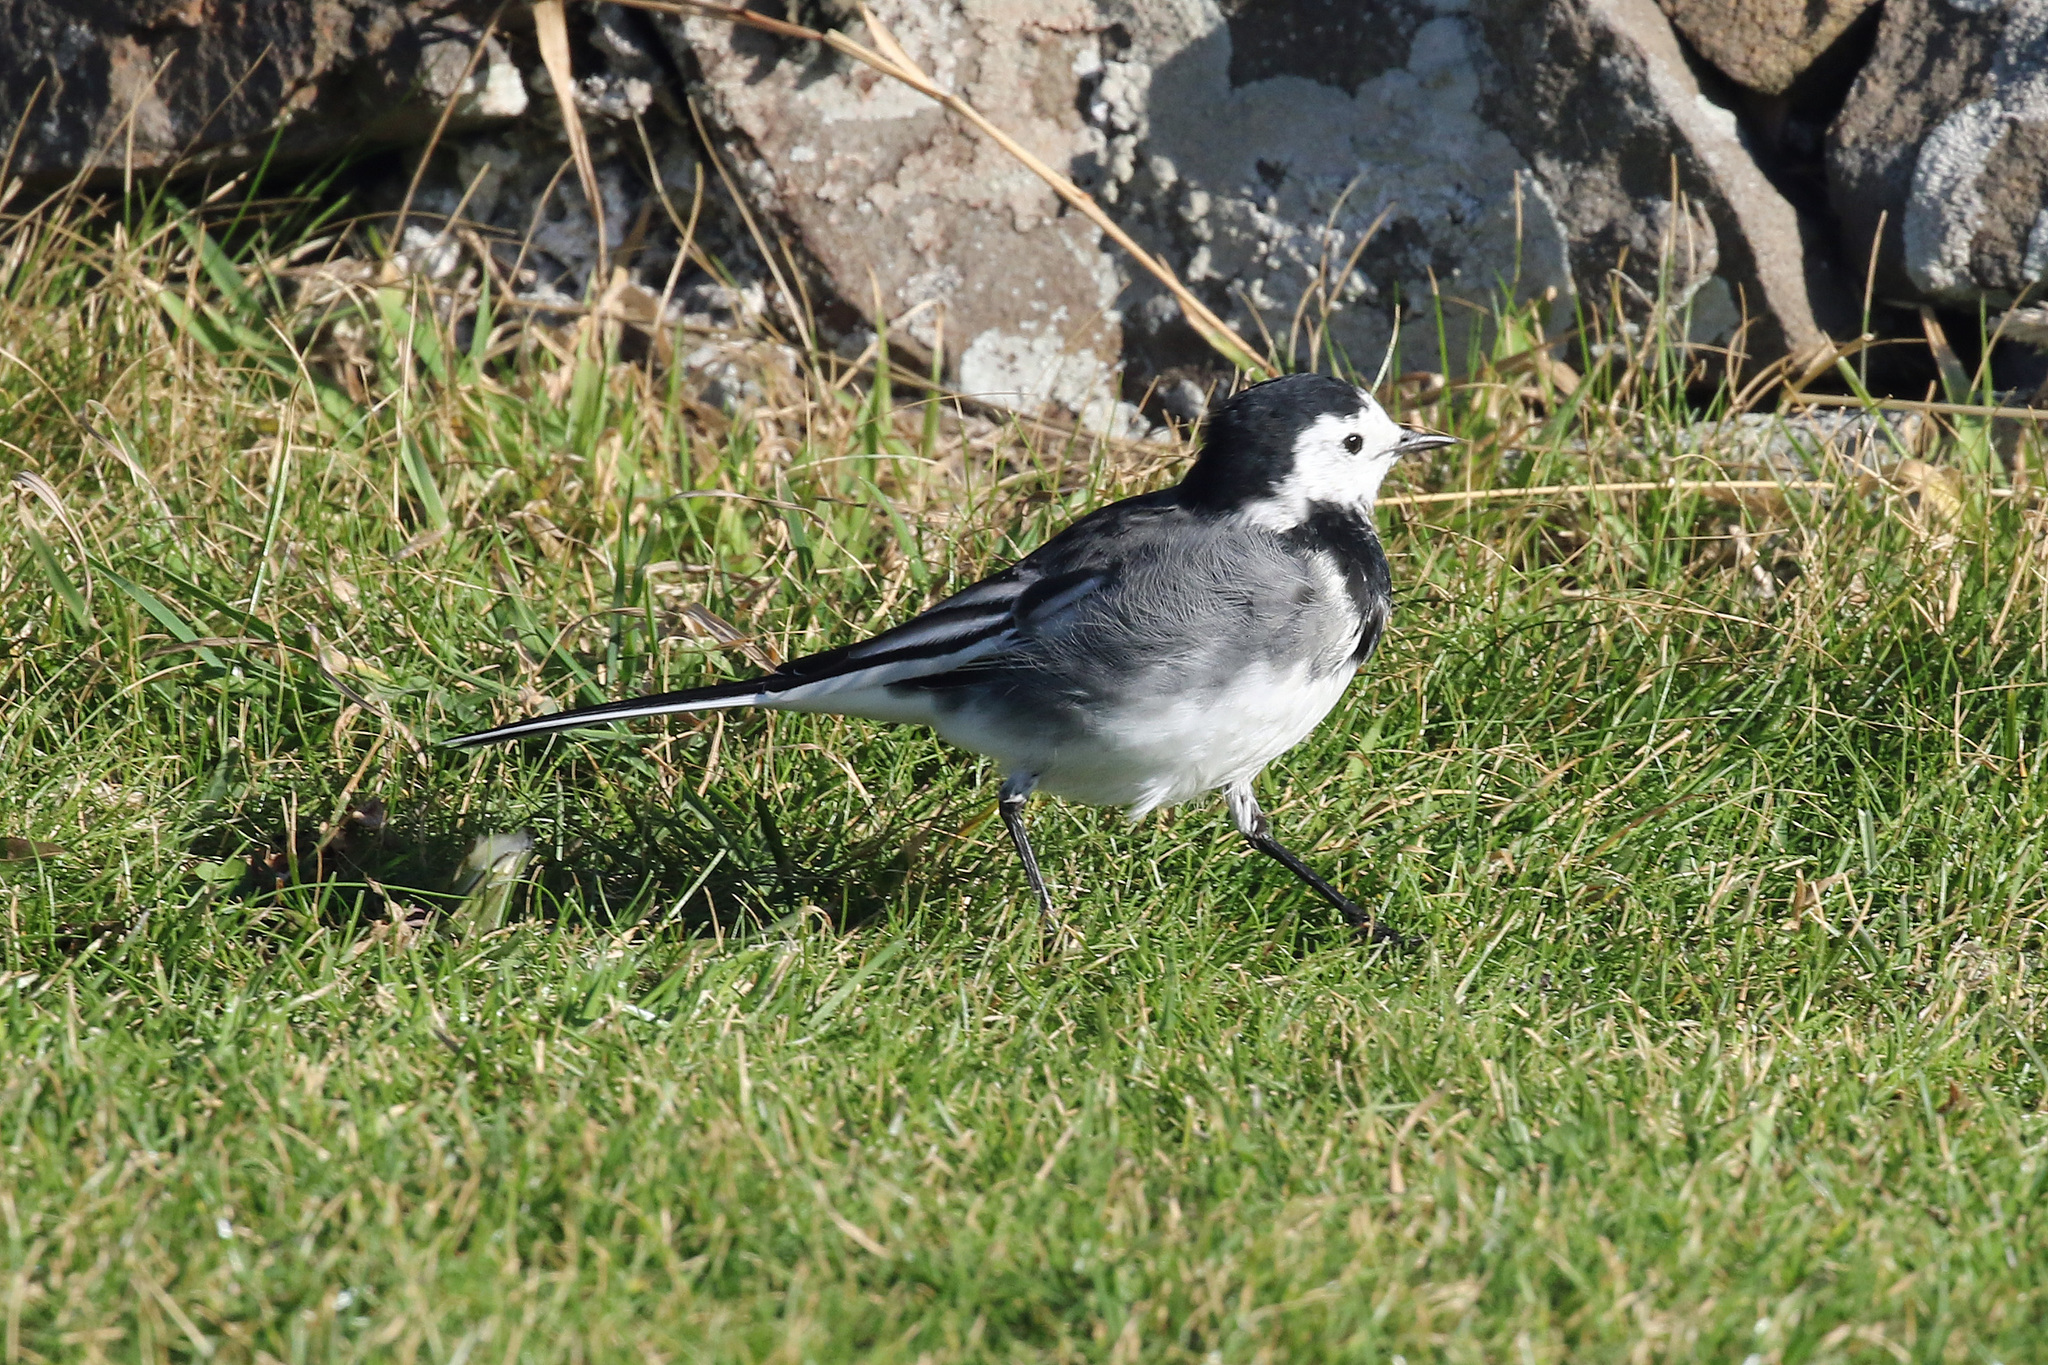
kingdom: Animalia
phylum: Chordata
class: Aves
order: Passeriformes
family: Motacillidae
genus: Motacilla
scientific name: Motacilla alba
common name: White wagtail
